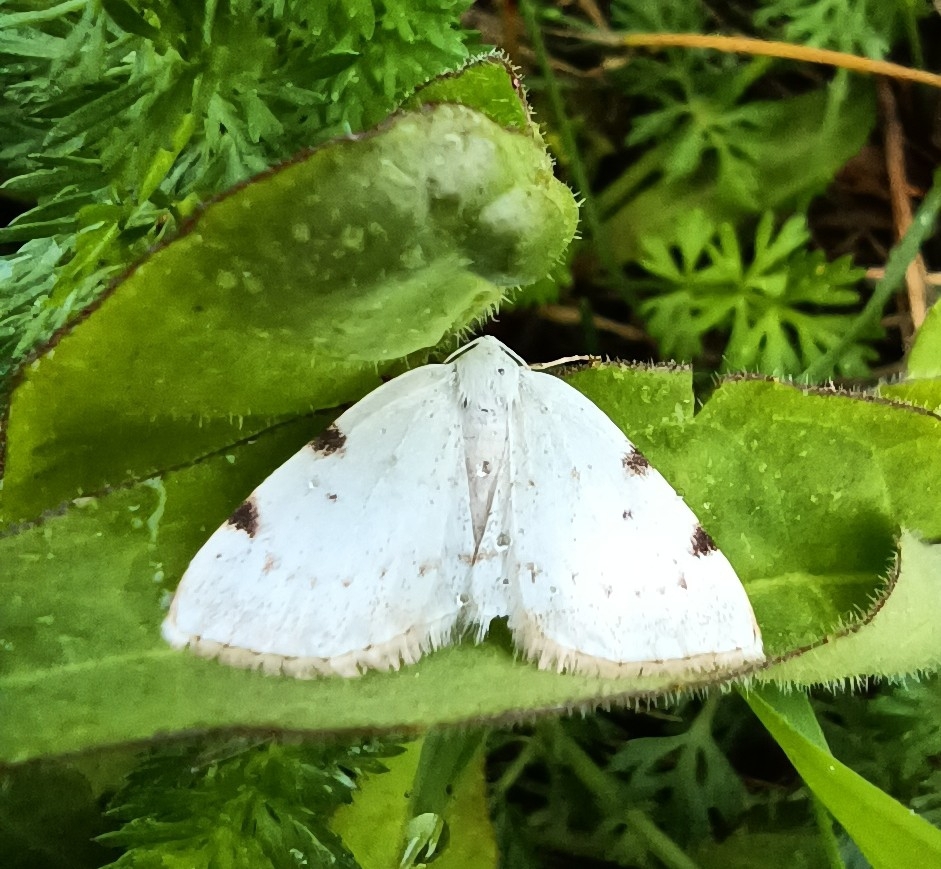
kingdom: Animalia
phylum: Arthropoda
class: Insecta
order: Lepidoptera
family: Geometridae
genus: Lomographa
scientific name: Lomographa bimaculata
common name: White-pinion spotted
